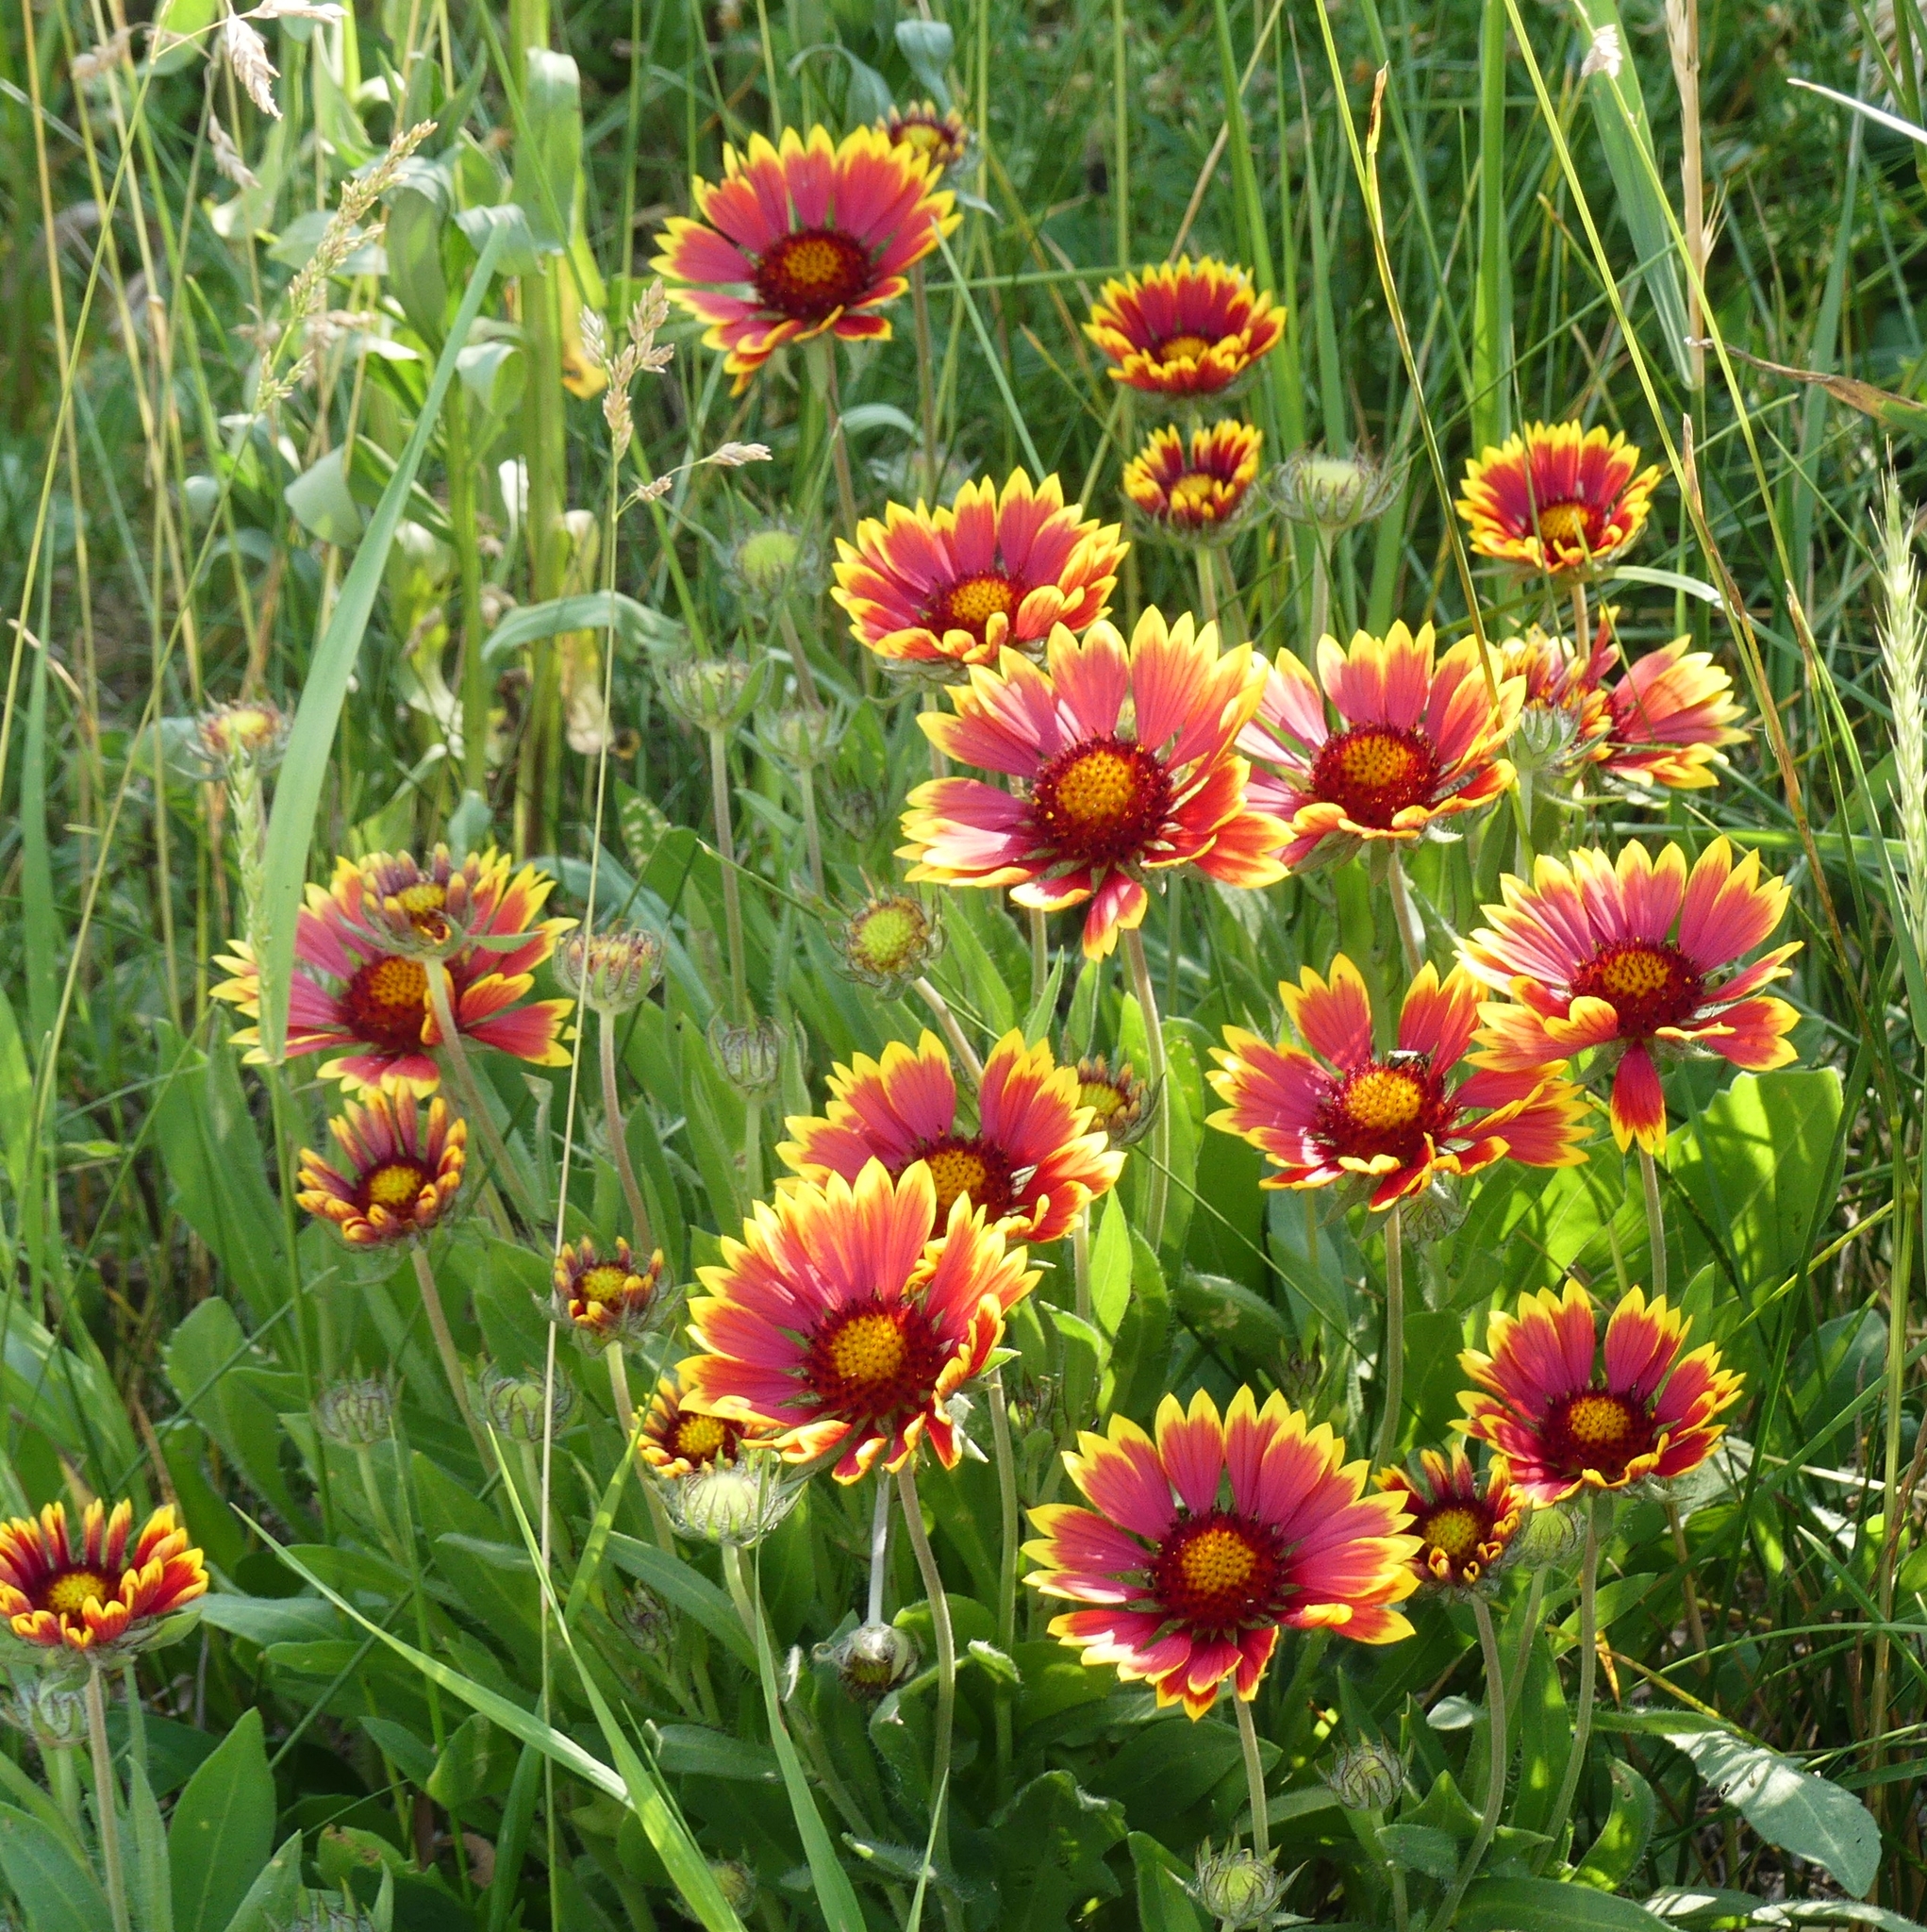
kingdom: Plantae
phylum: Tracheophyta
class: Magnoliopsida
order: Asterales
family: Asteraceae
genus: Gaillardia
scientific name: Gaillardia pulchella
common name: Firewheel
